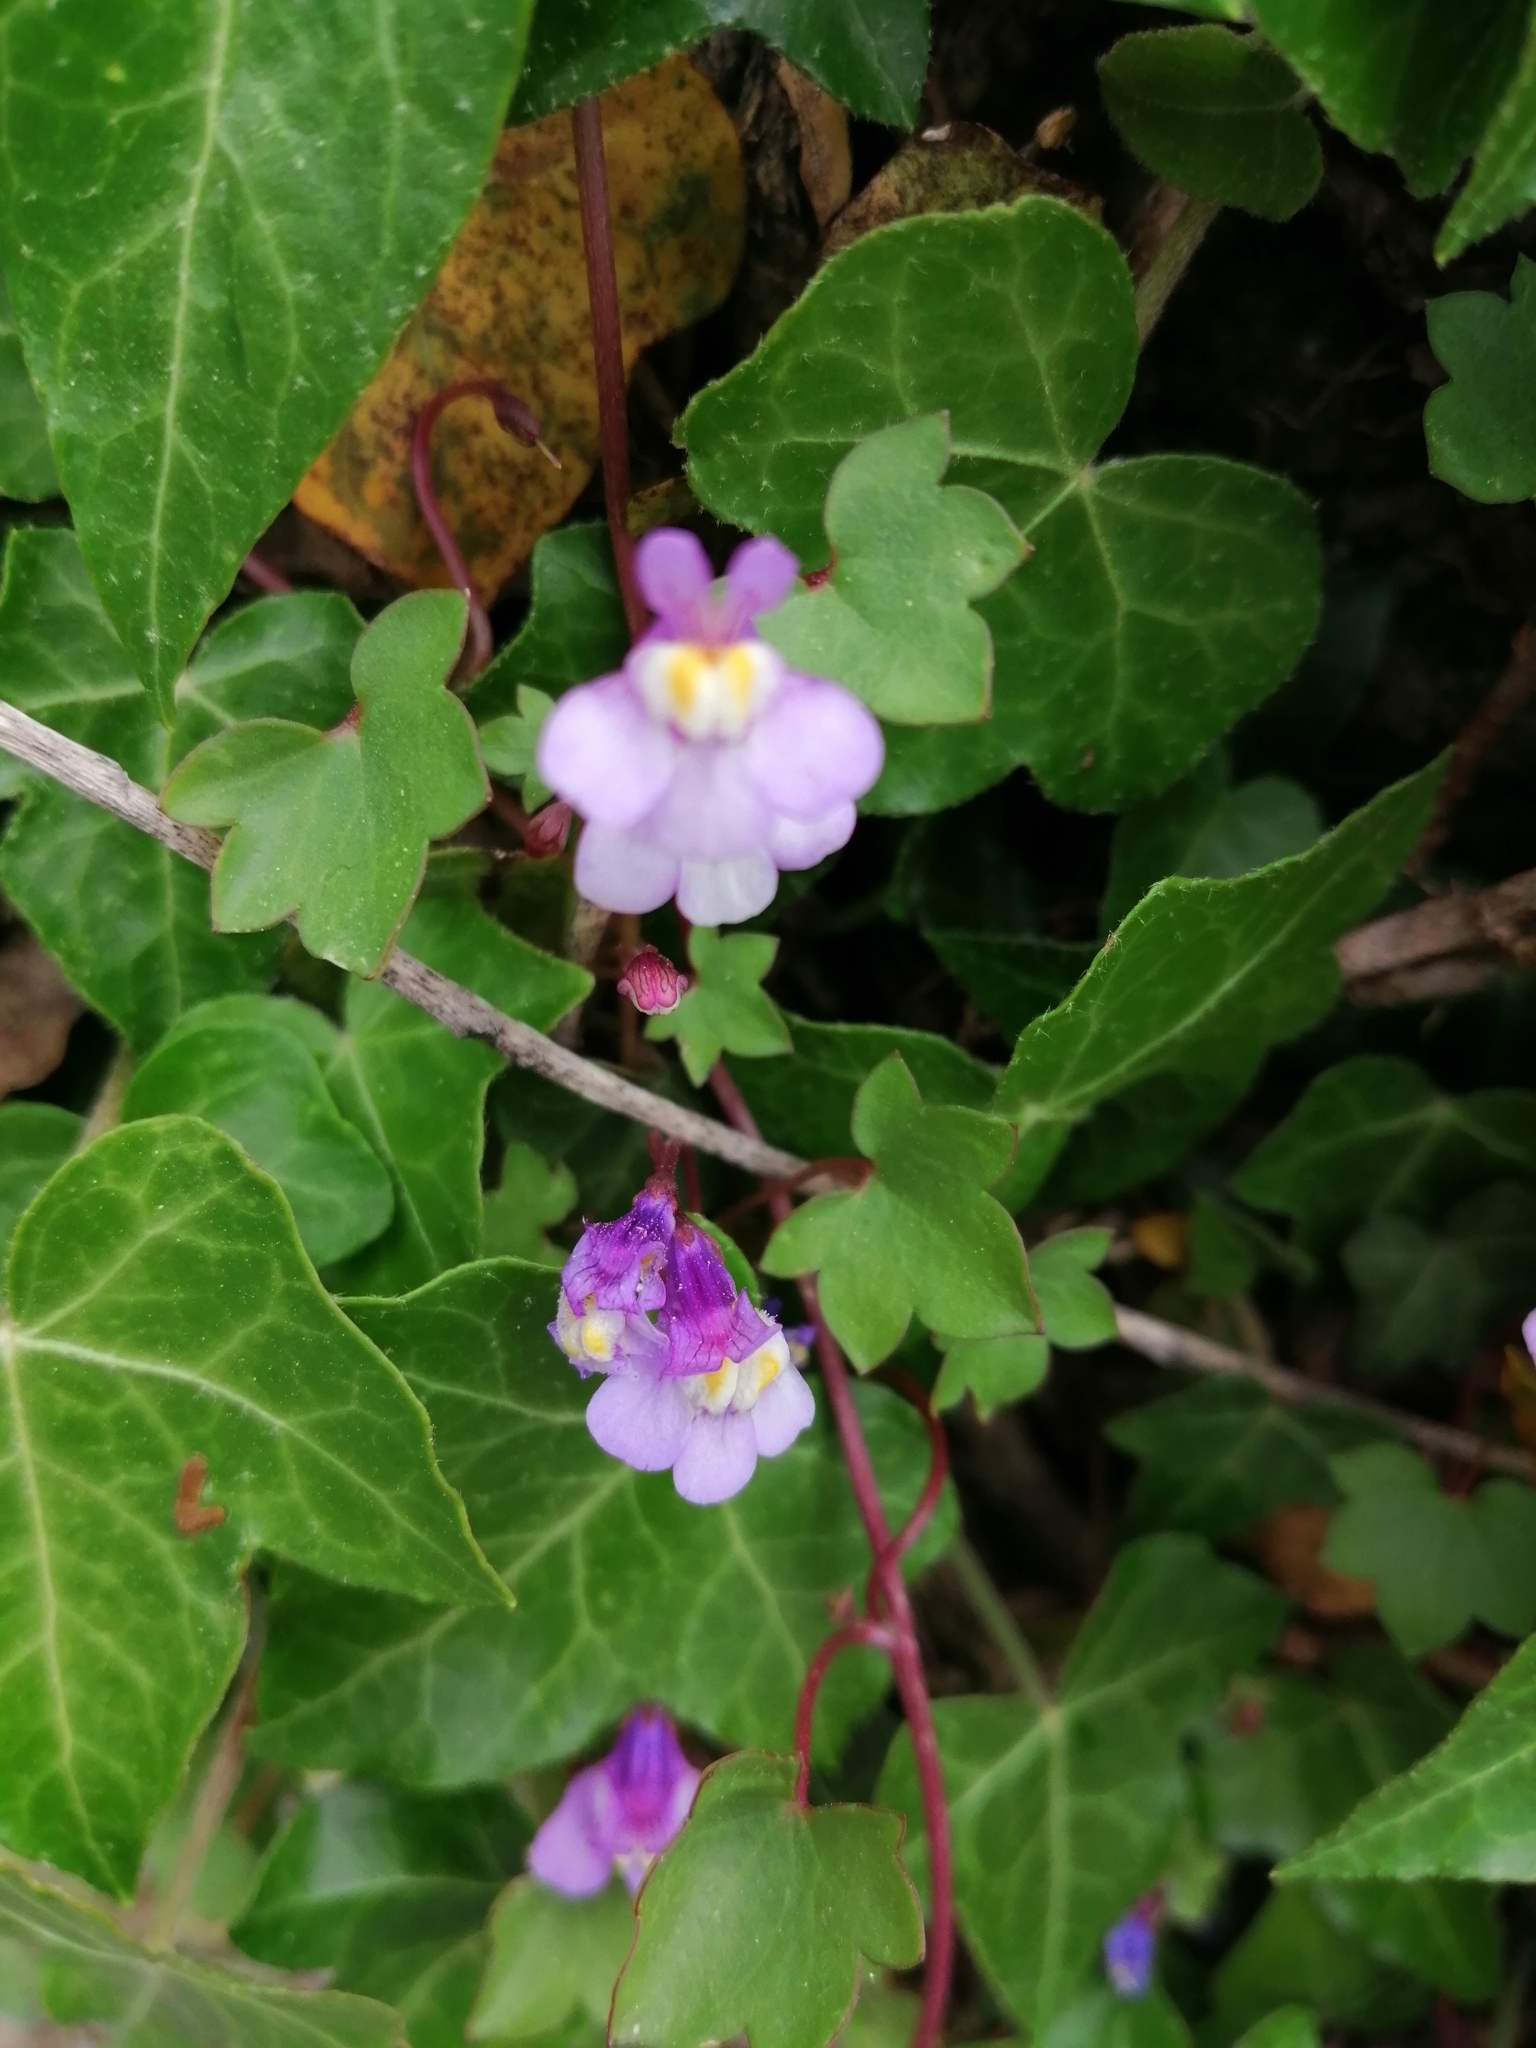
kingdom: Plantae
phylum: Tracheophyta
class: Magnoliopsida
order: Lamiales
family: Plantaginaceae
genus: Cymbalaria
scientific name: Cymbalaria muralis
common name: Ivy-leaved toadflax
